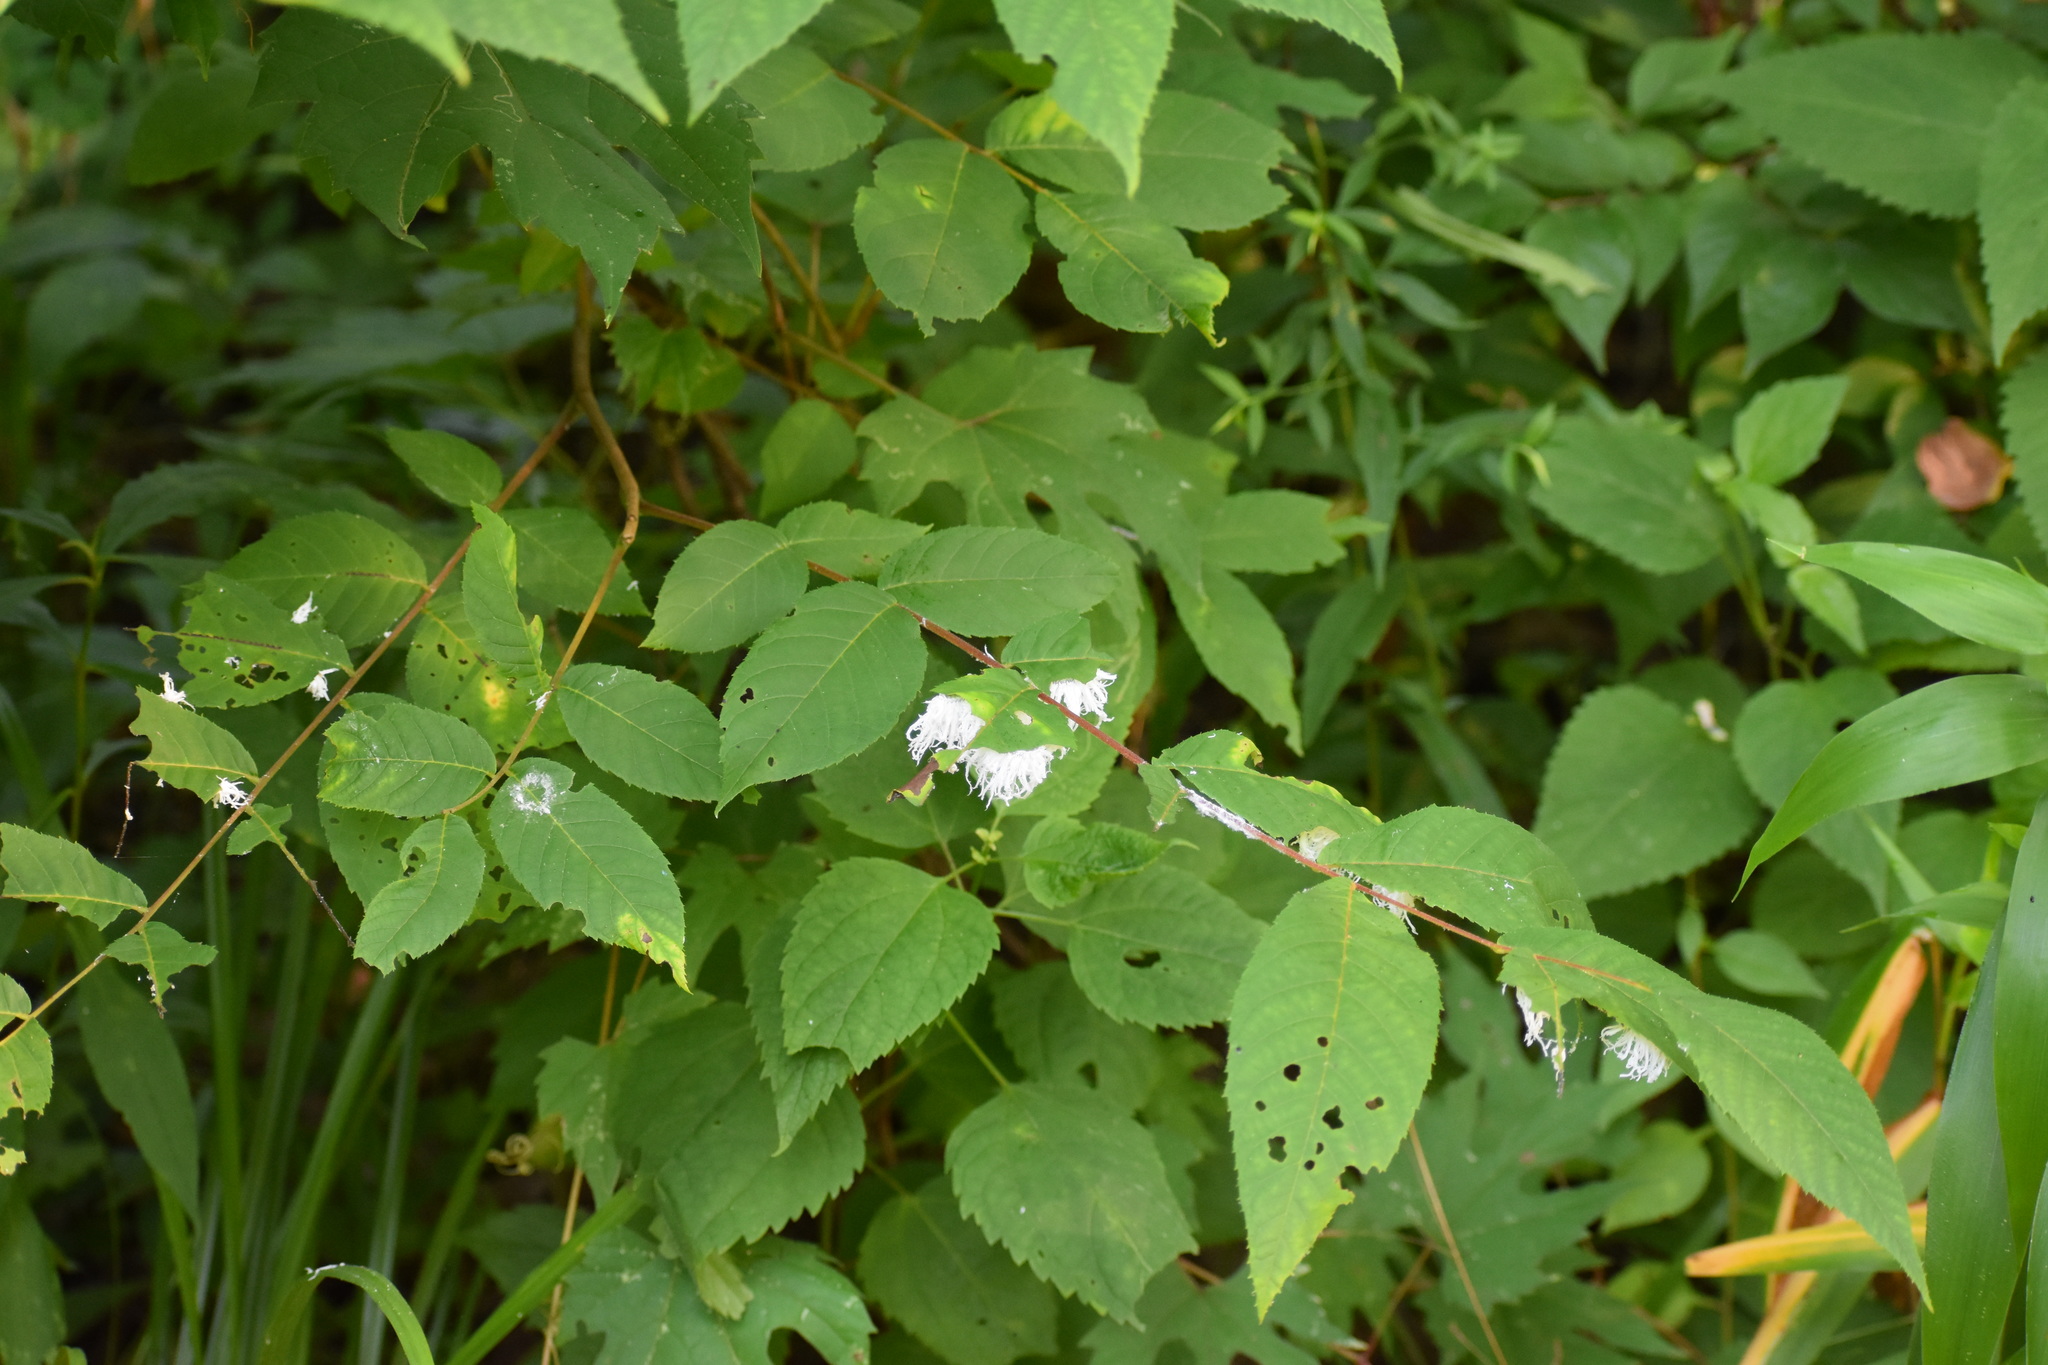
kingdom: Animalia
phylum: Arthropoda
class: Insecta
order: Hymenoptera
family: Tenthredinidae
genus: Eriocampa
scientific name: Eriocampa juglandis
